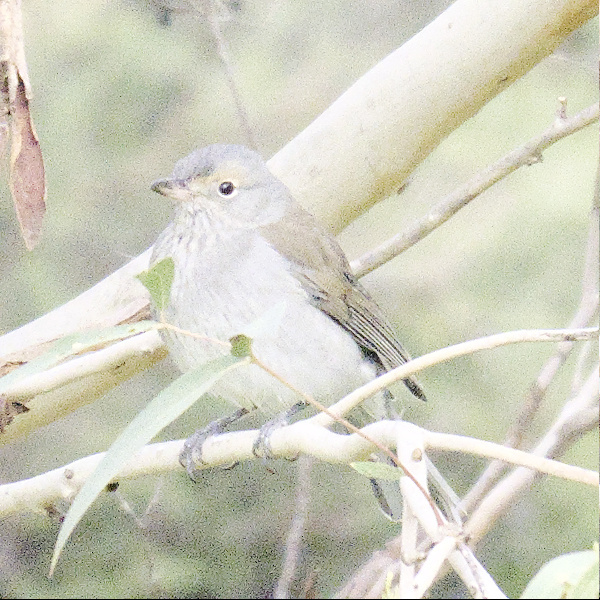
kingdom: Animalia
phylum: Chordata
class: Aves
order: Passeriformes
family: Pachycephalidae
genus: Colluricincla
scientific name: Colluricincla harmonica
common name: Grey shrikethrush
